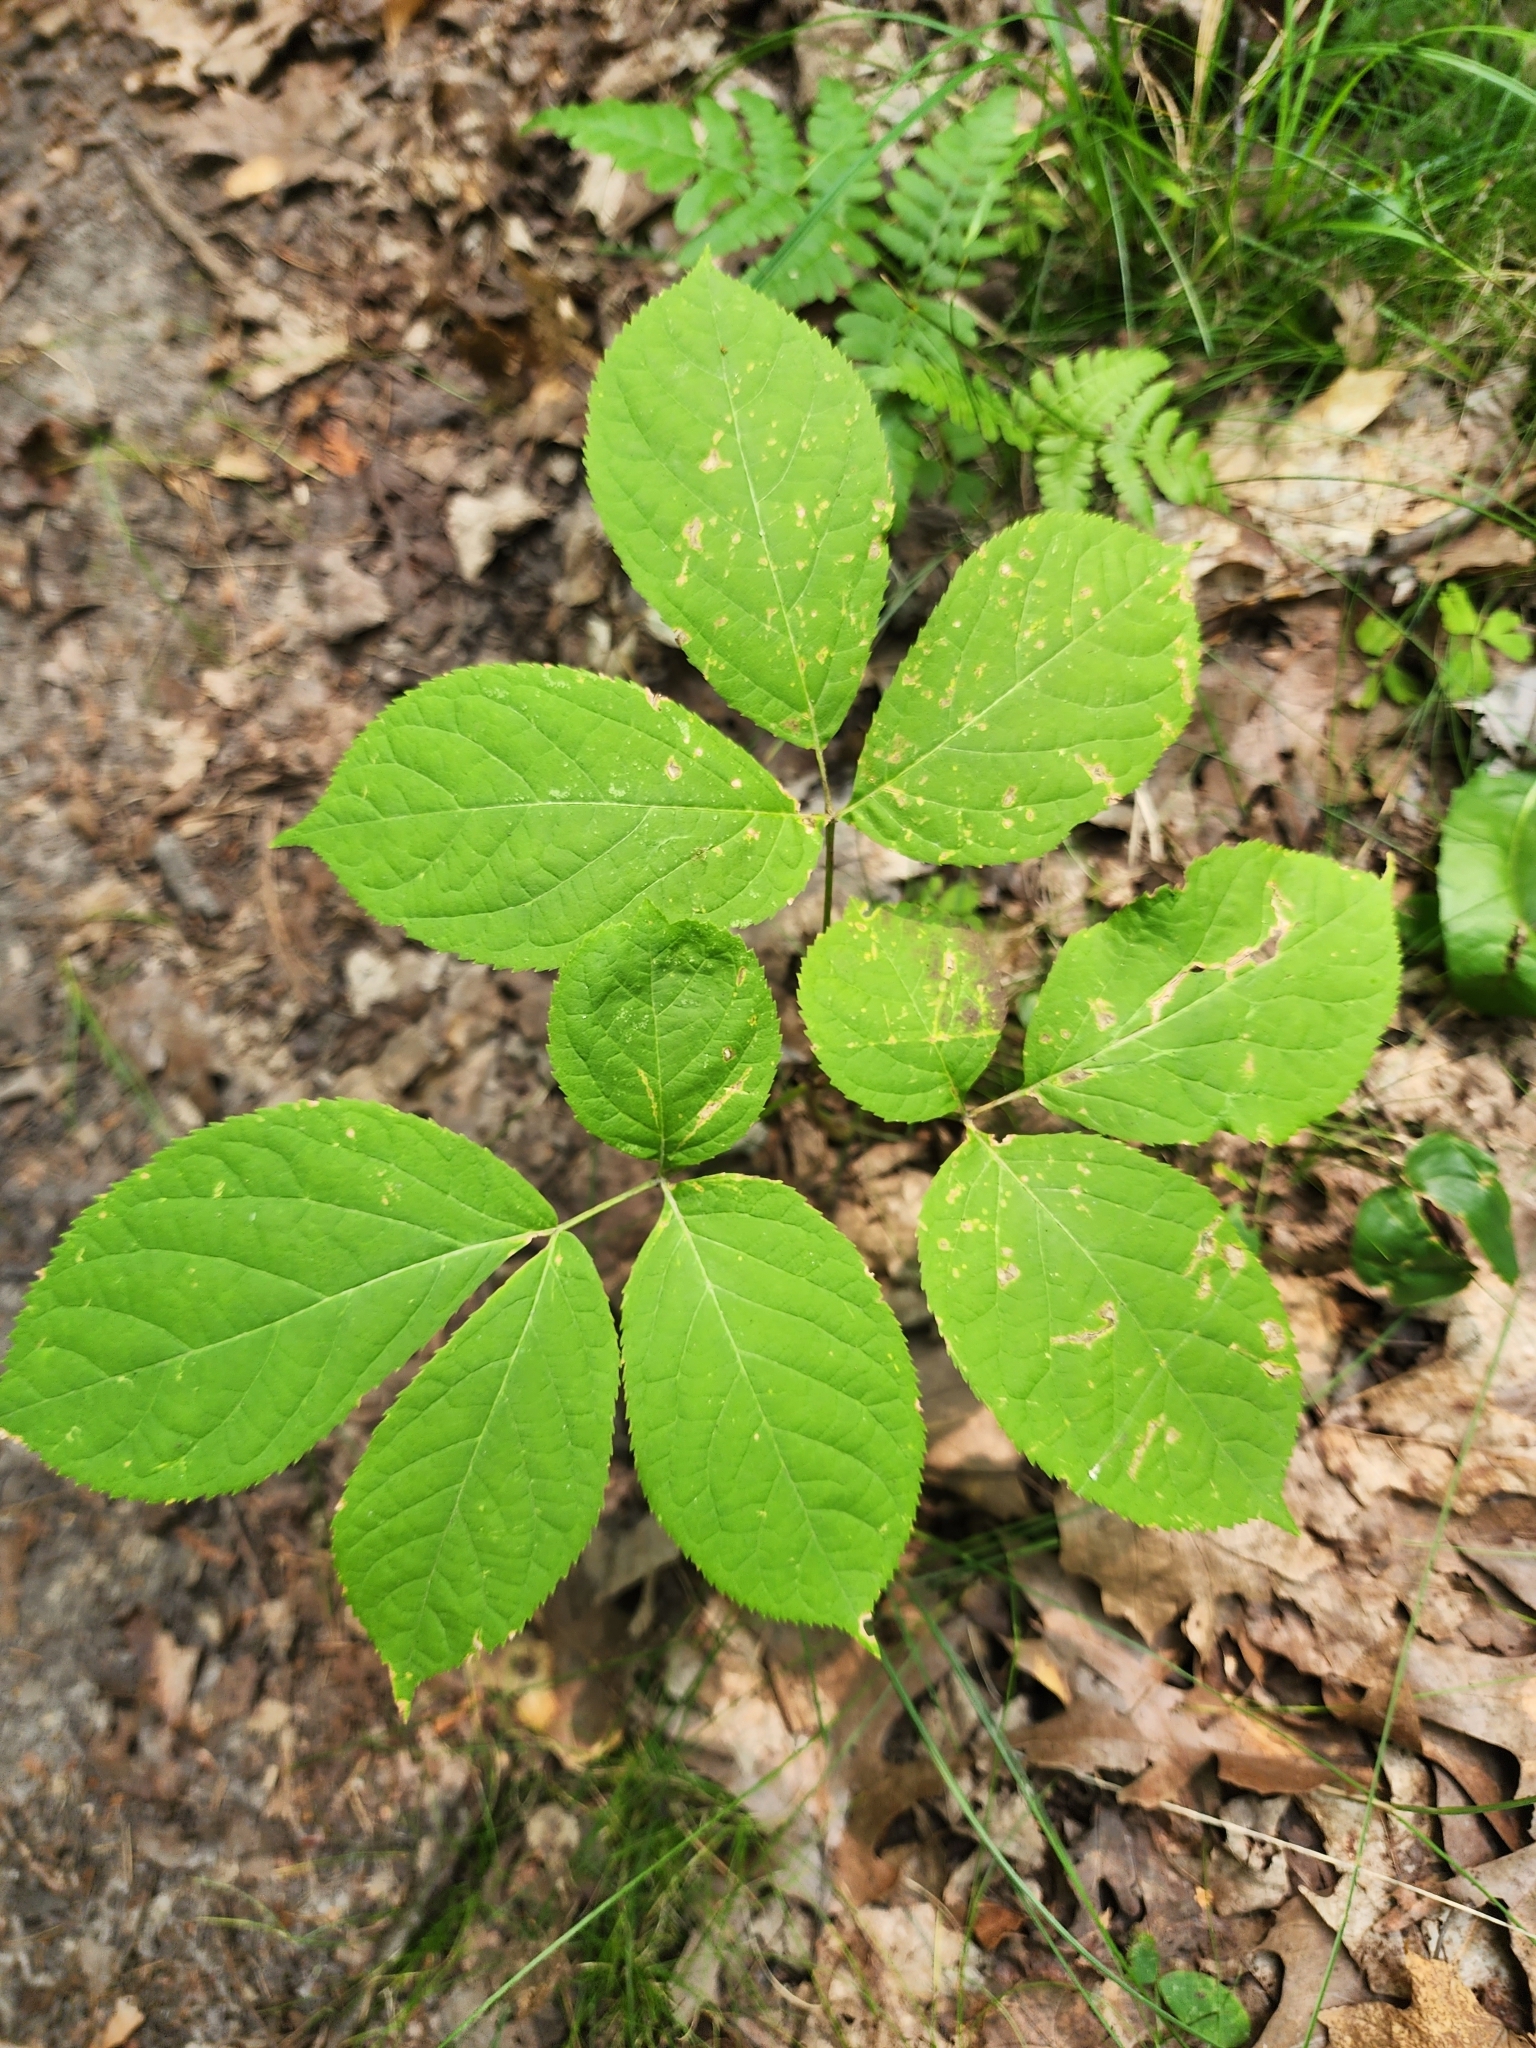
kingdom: Plantae
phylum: Tracheophyta
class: Magnoliopsida
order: Apiales
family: Araliaceae
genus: Aralia
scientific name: Aralia nudicaulis
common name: Wild sarsaparilla
